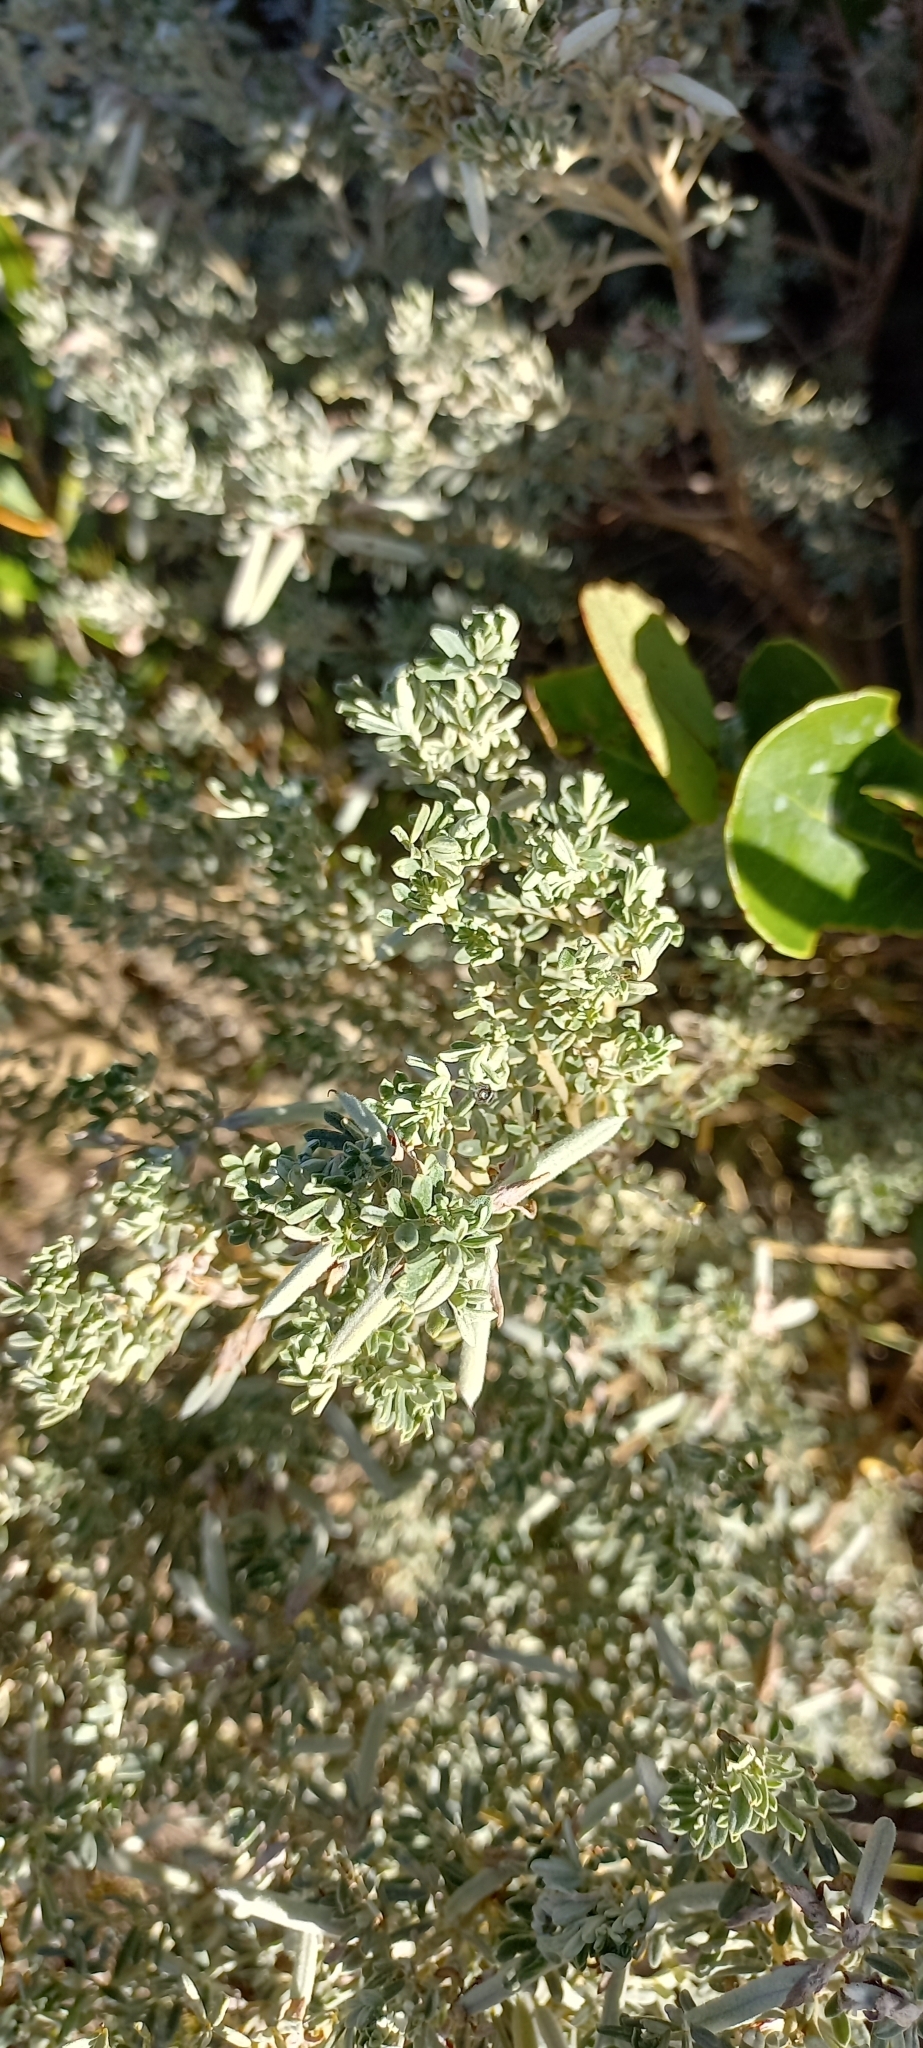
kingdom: Plantae
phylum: Tracheophyta
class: Magnoliopsida
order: Fabales
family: Fabaceae
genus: Indigofera
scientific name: Indigofera brachystachya
